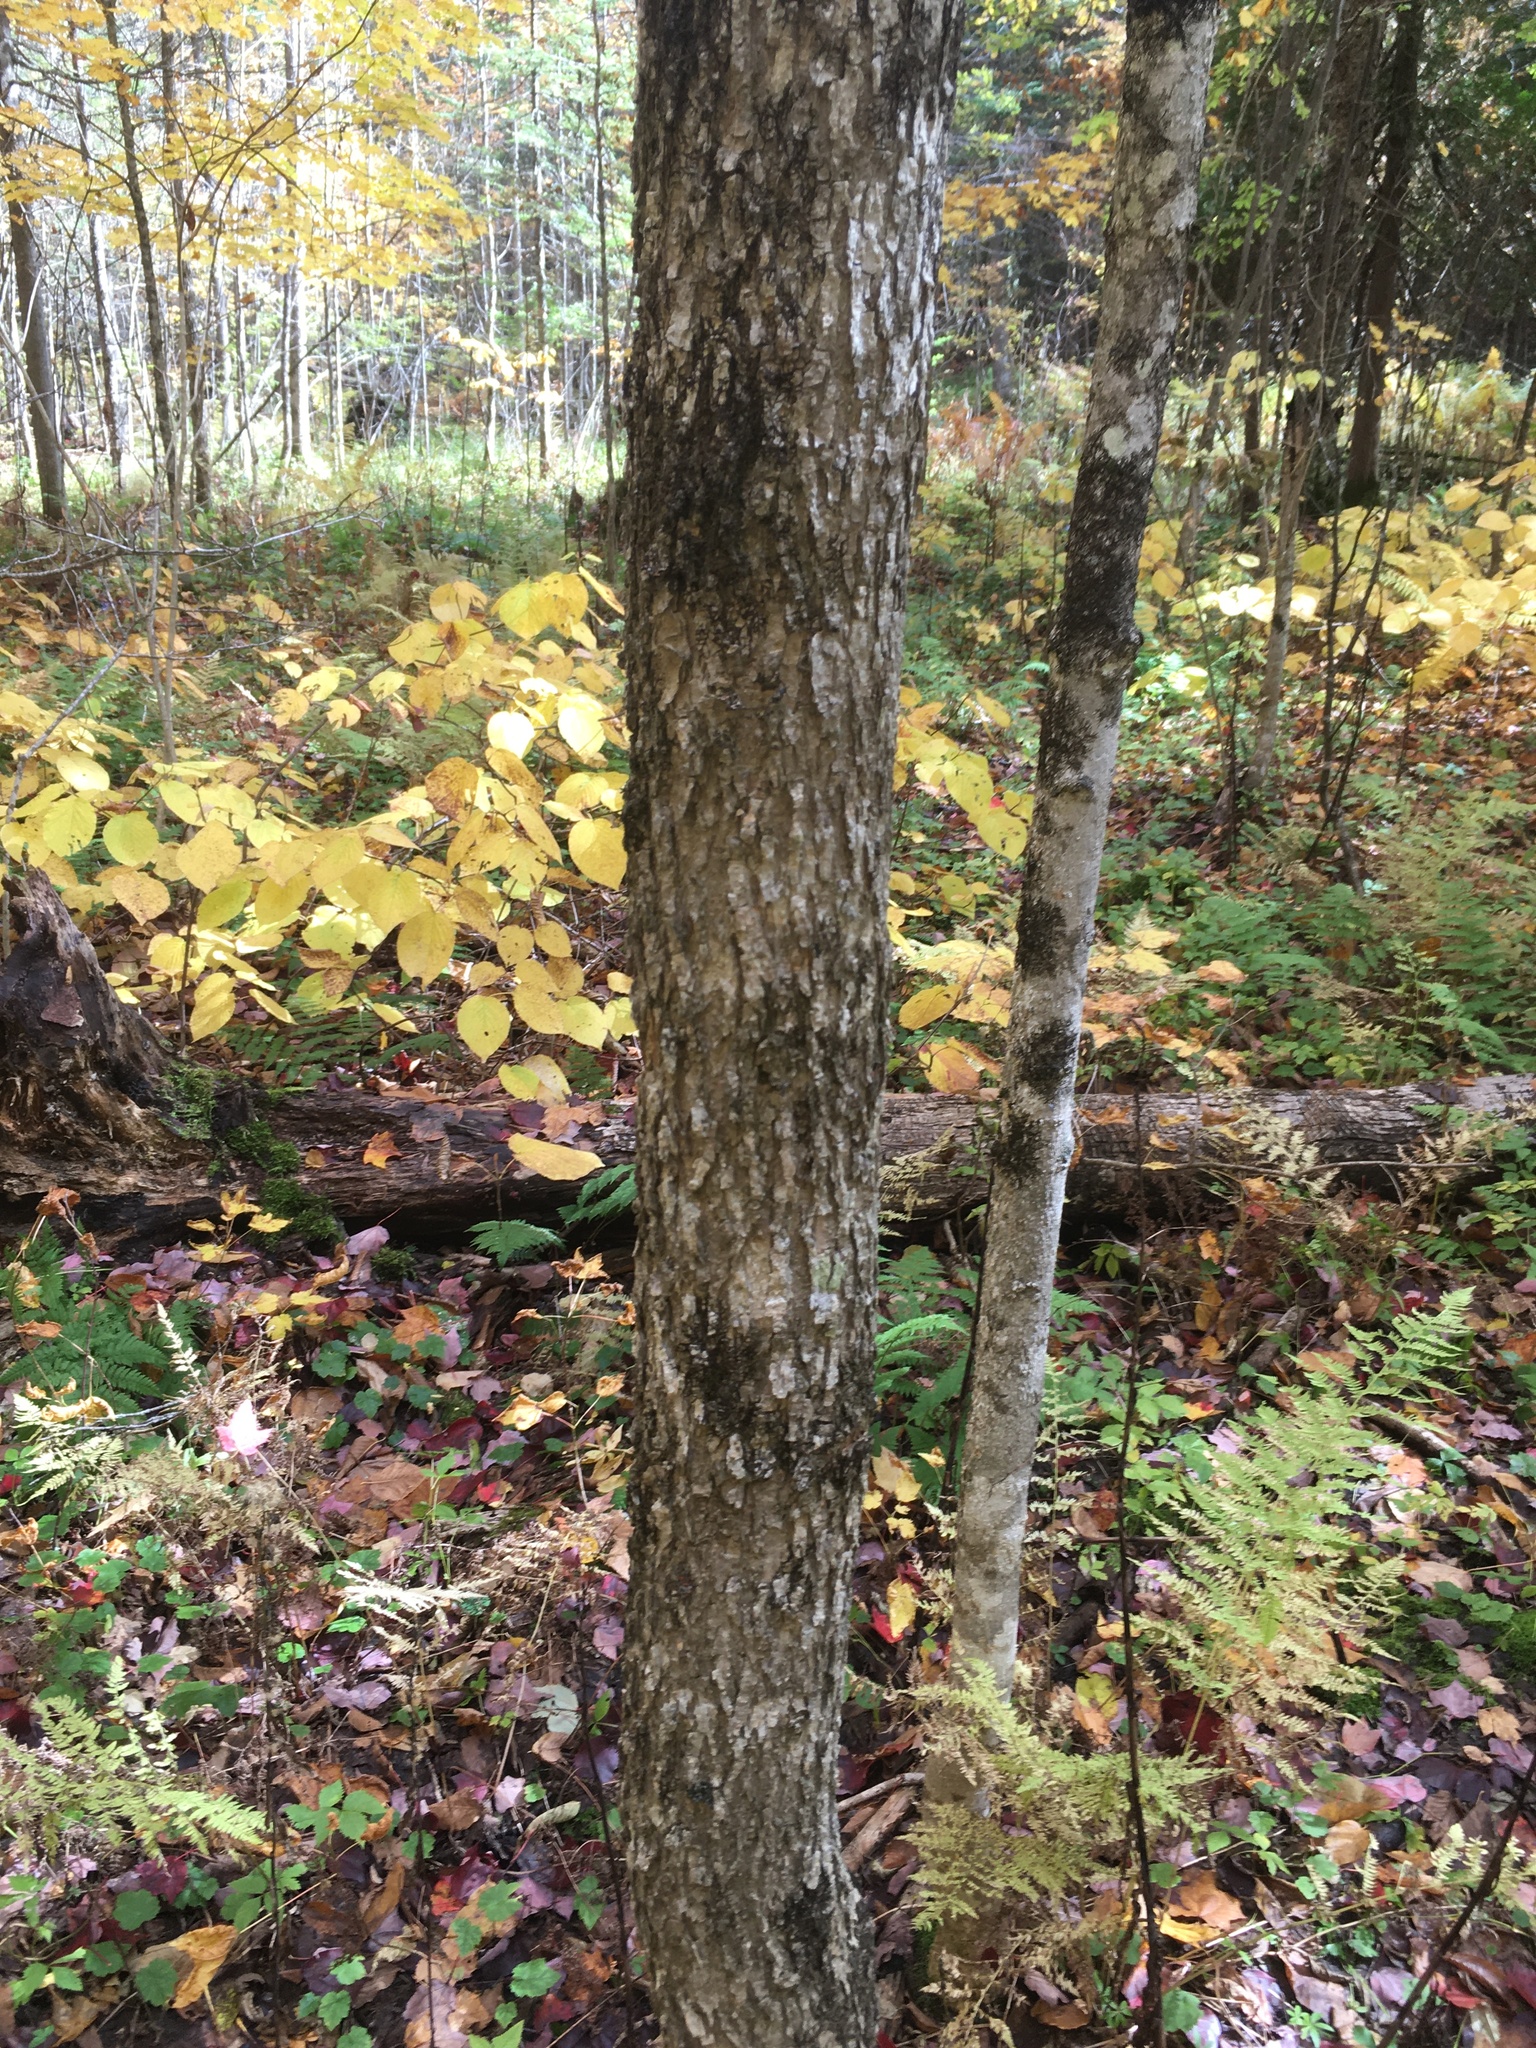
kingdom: Plantae
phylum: Tracheophyta
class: Magnoliopsida
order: Lamiales
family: Oleaceae
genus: Fraxinus
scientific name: Fraxinus nigra
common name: Black ash
